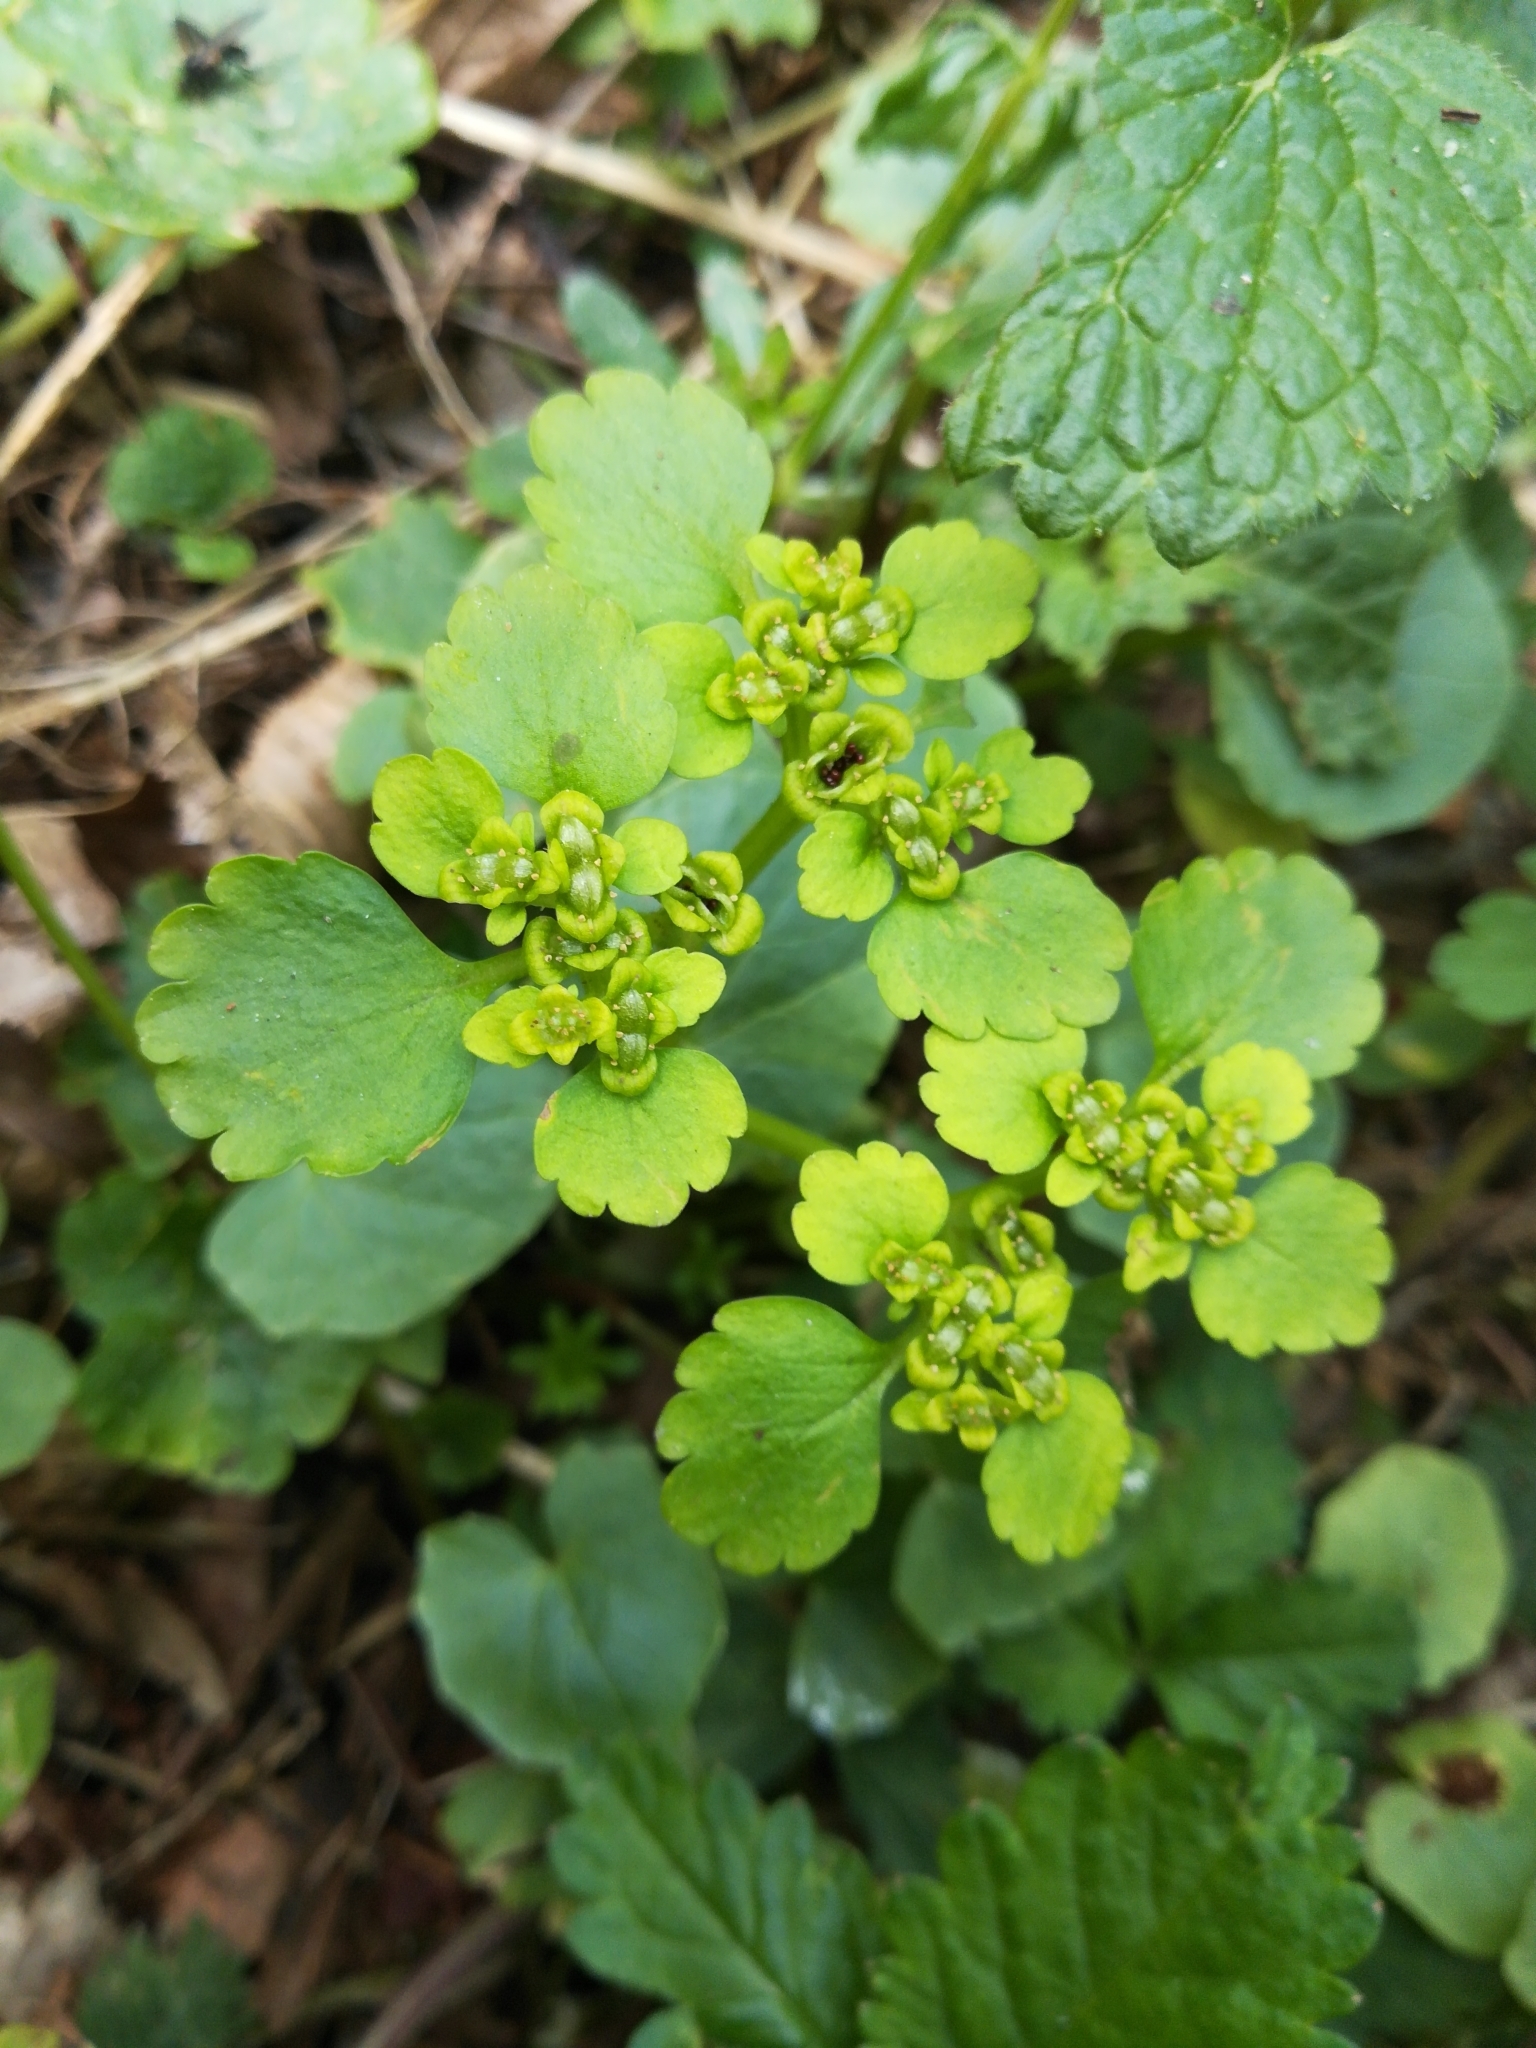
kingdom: Plantae
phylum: Tracheophyta
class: Magnoliopsida
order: Saxifragales
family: Saxifragaceae
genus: Chrysosplenium
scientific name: Chrysosplenium alternifolium
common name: Alternate-leaved golden-saxifrage
